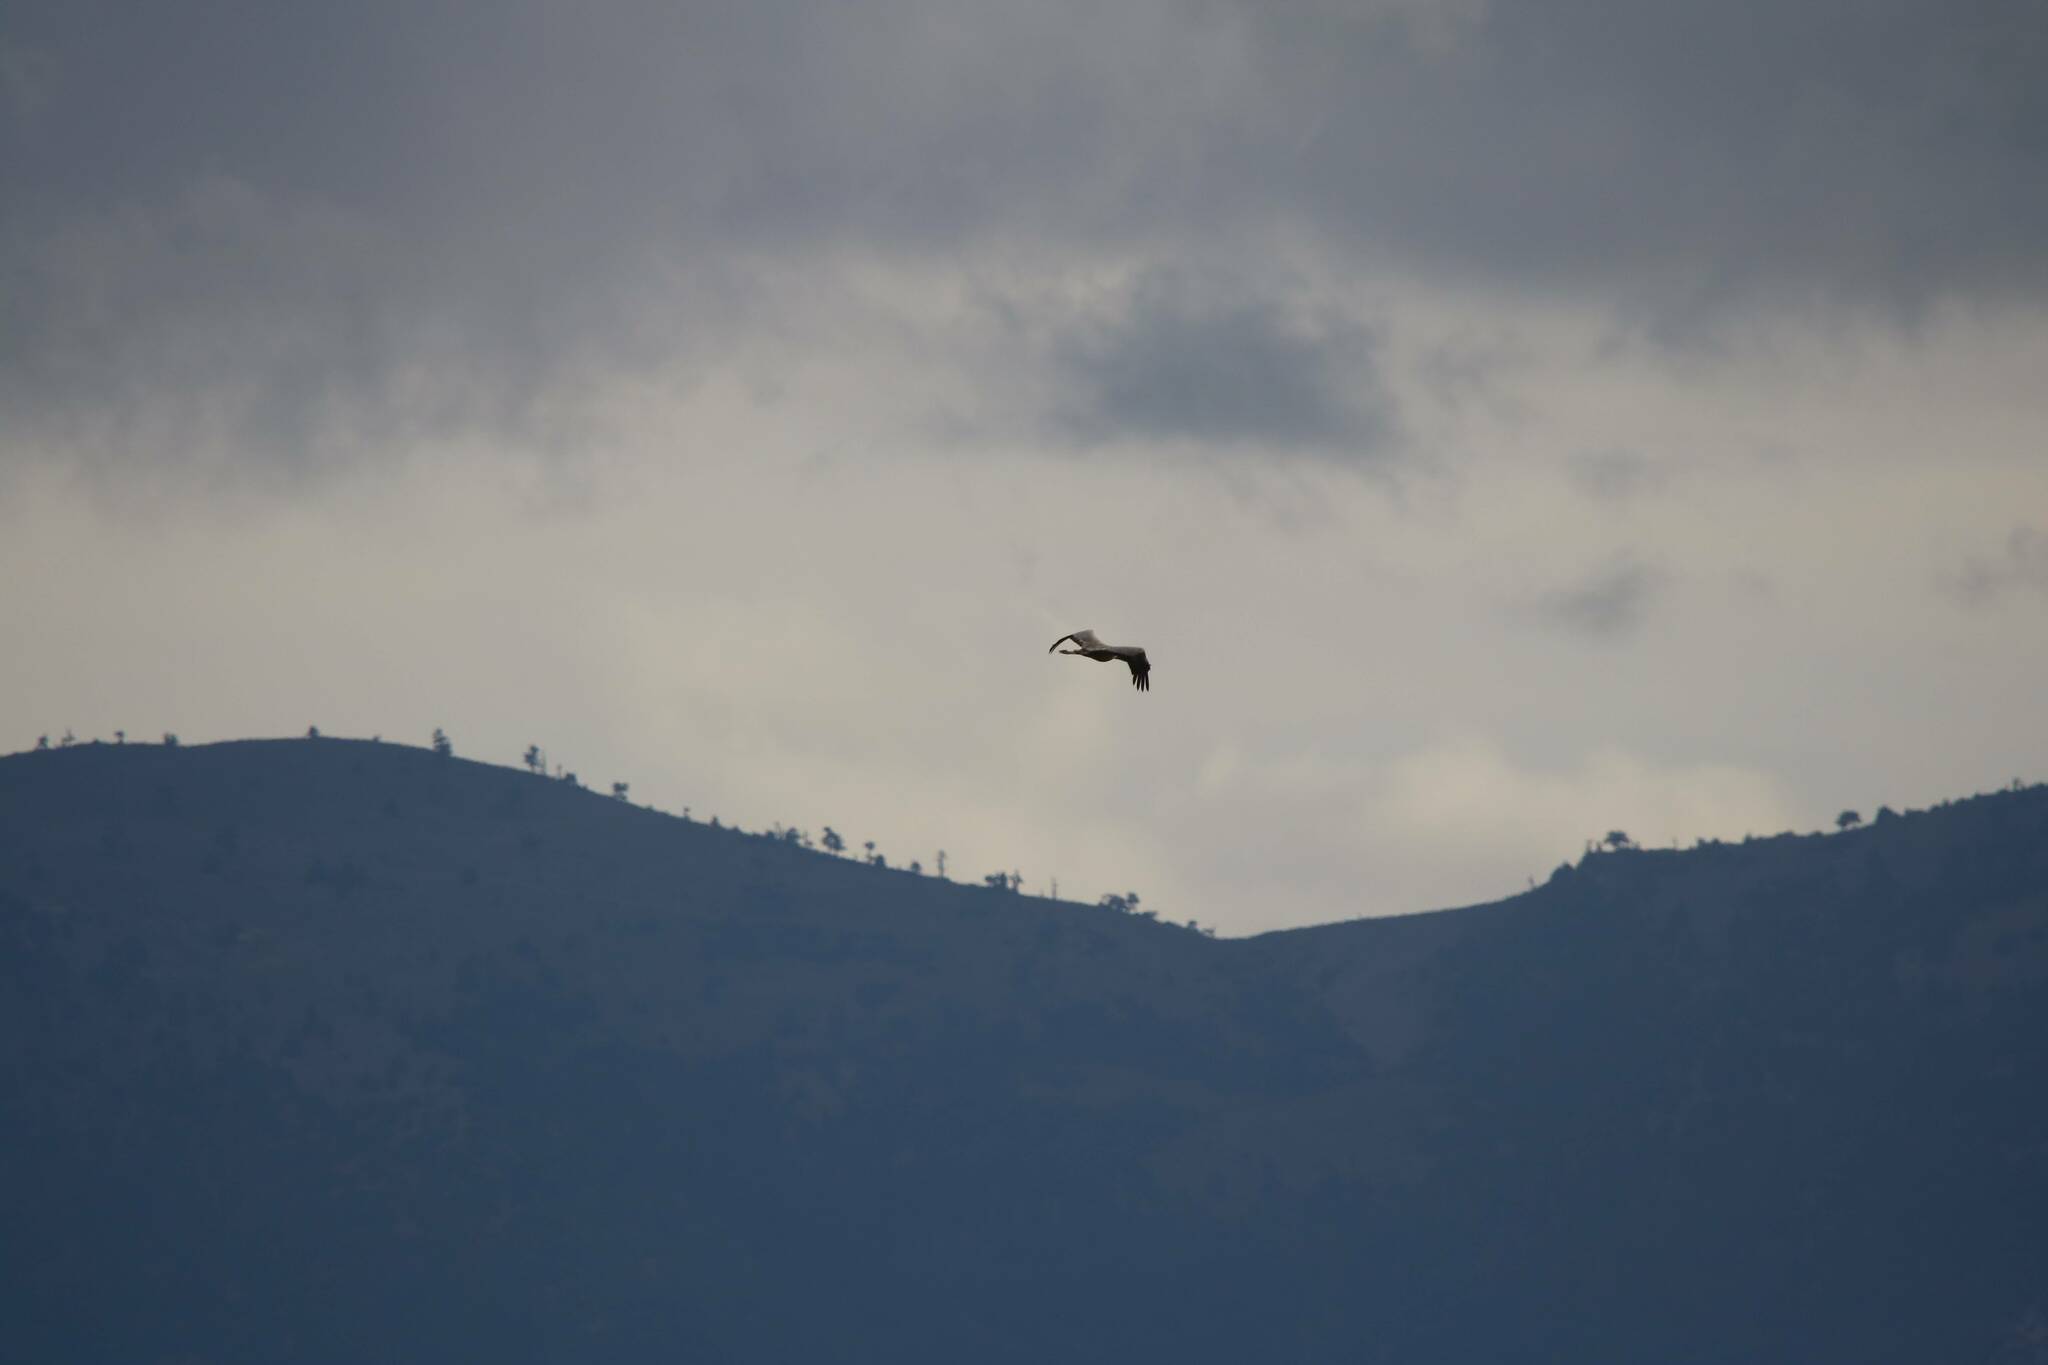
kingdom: Animalia
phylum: Chordata
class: Aves
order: Gruiformes
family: Gruidae
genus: Grus
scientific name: Grus grus
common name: Common crane
